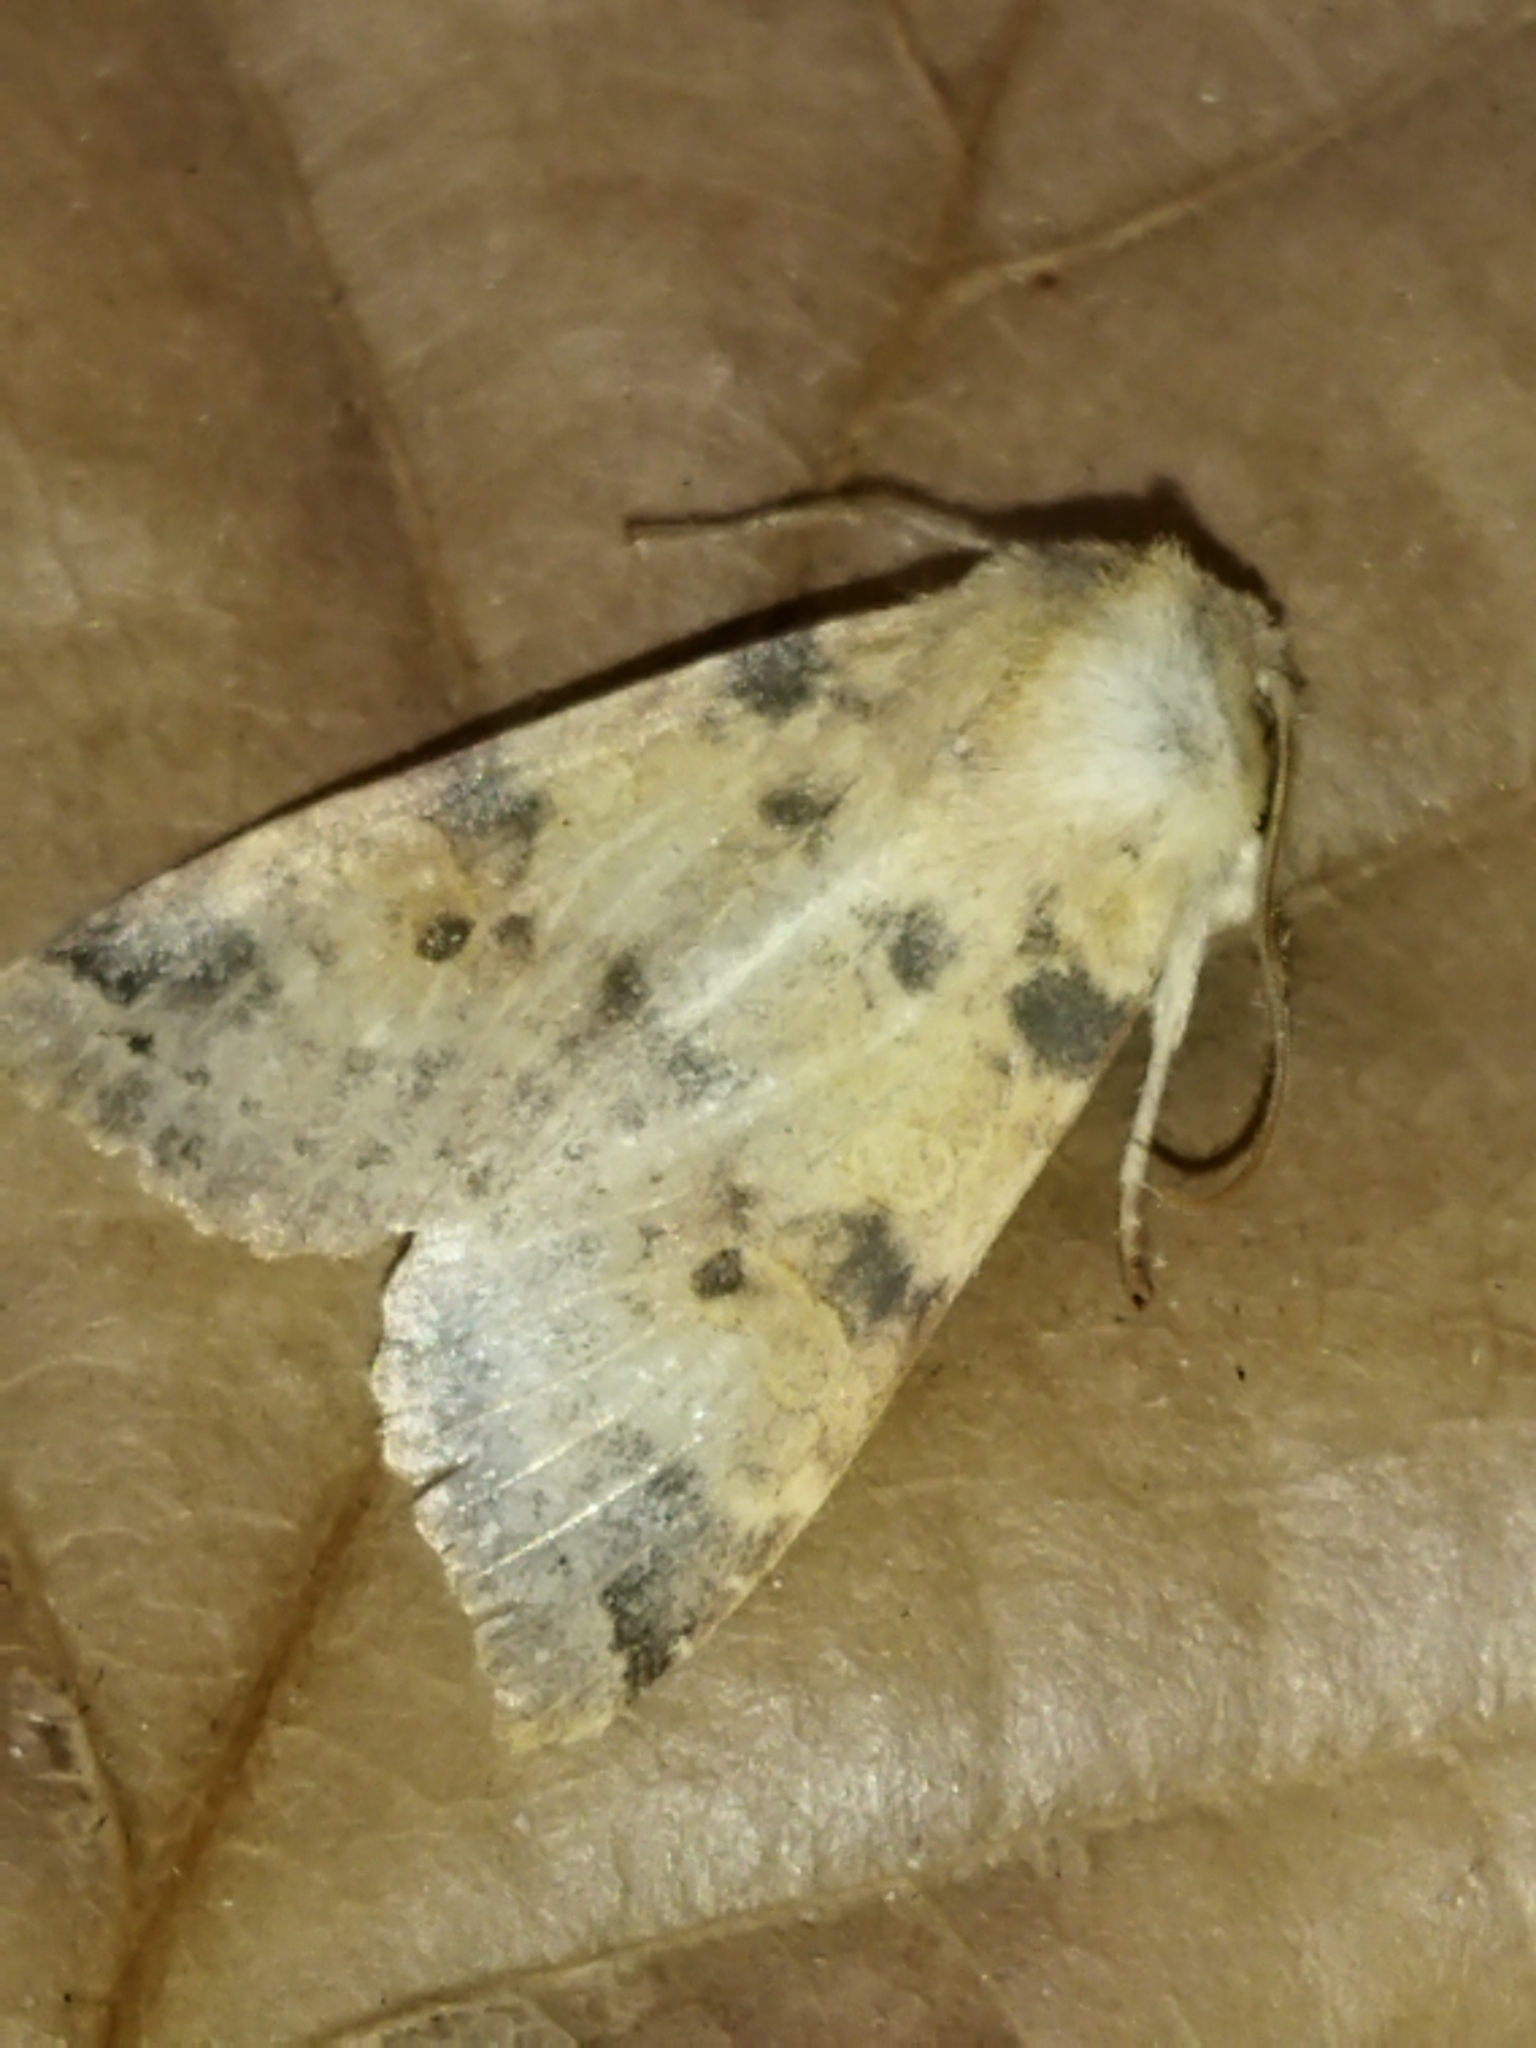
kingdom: Animalia
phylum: Arthropoda
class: Insecta
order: Lepidoptera
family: Noctuidae
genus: Xanthia
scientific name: Xanthia icteritia
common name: The sallow
